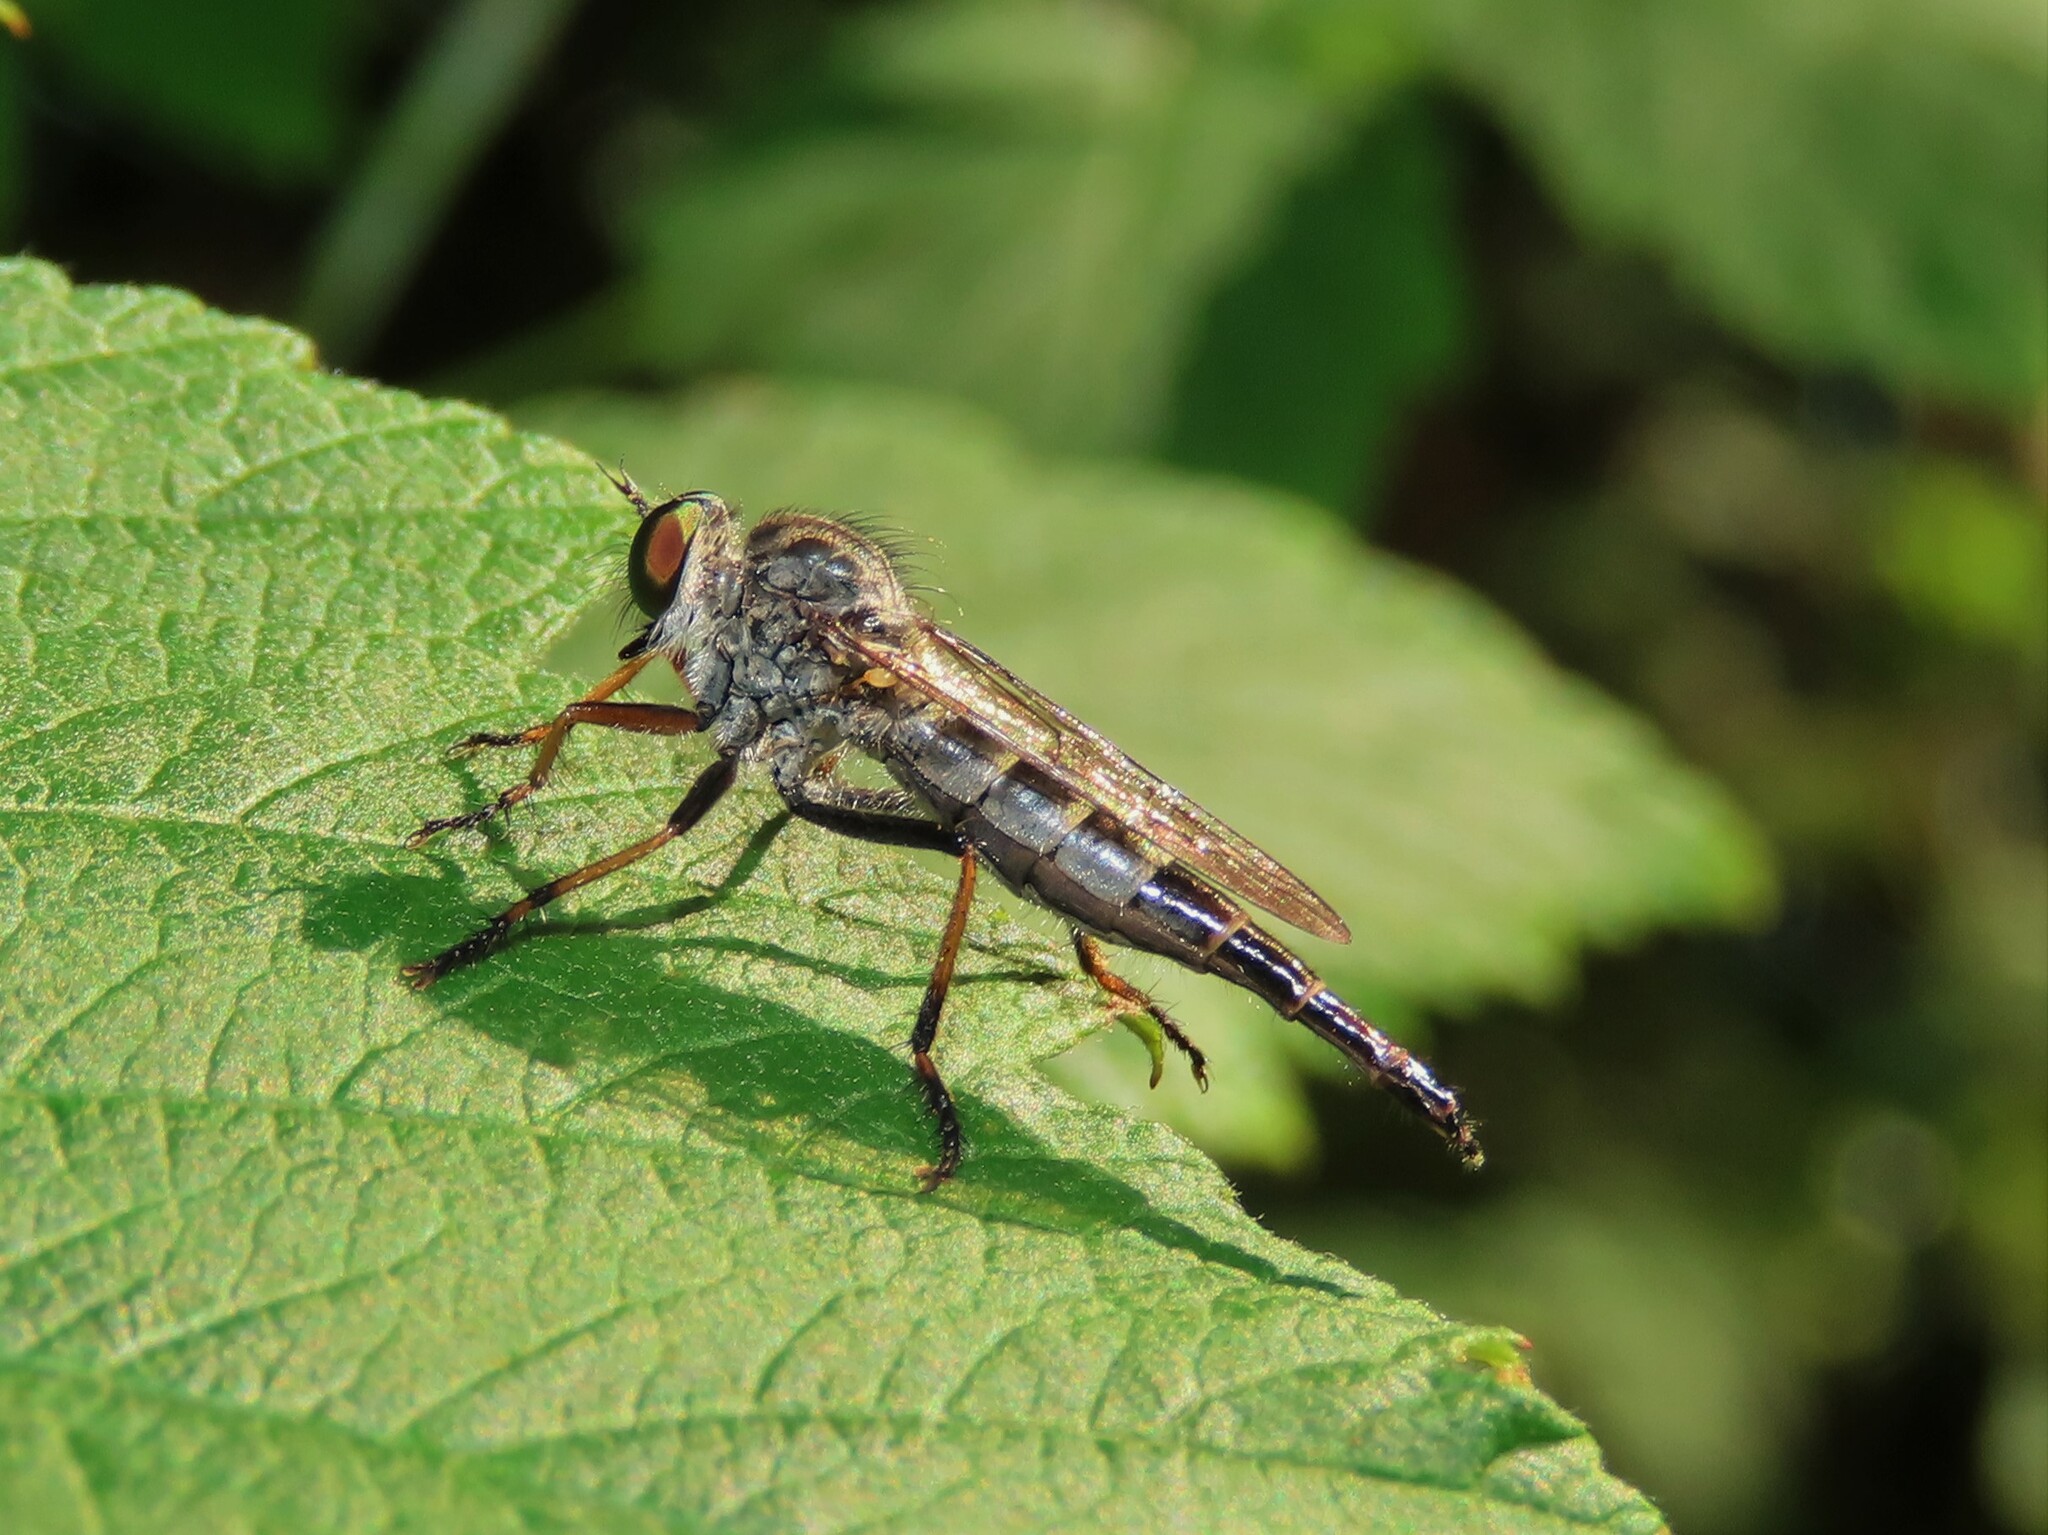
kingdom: Animalia
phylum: Arthropoda
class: Insecta
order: Diptera
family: Asilidae
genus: Asilus
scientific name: Asilus flavofemoratus
